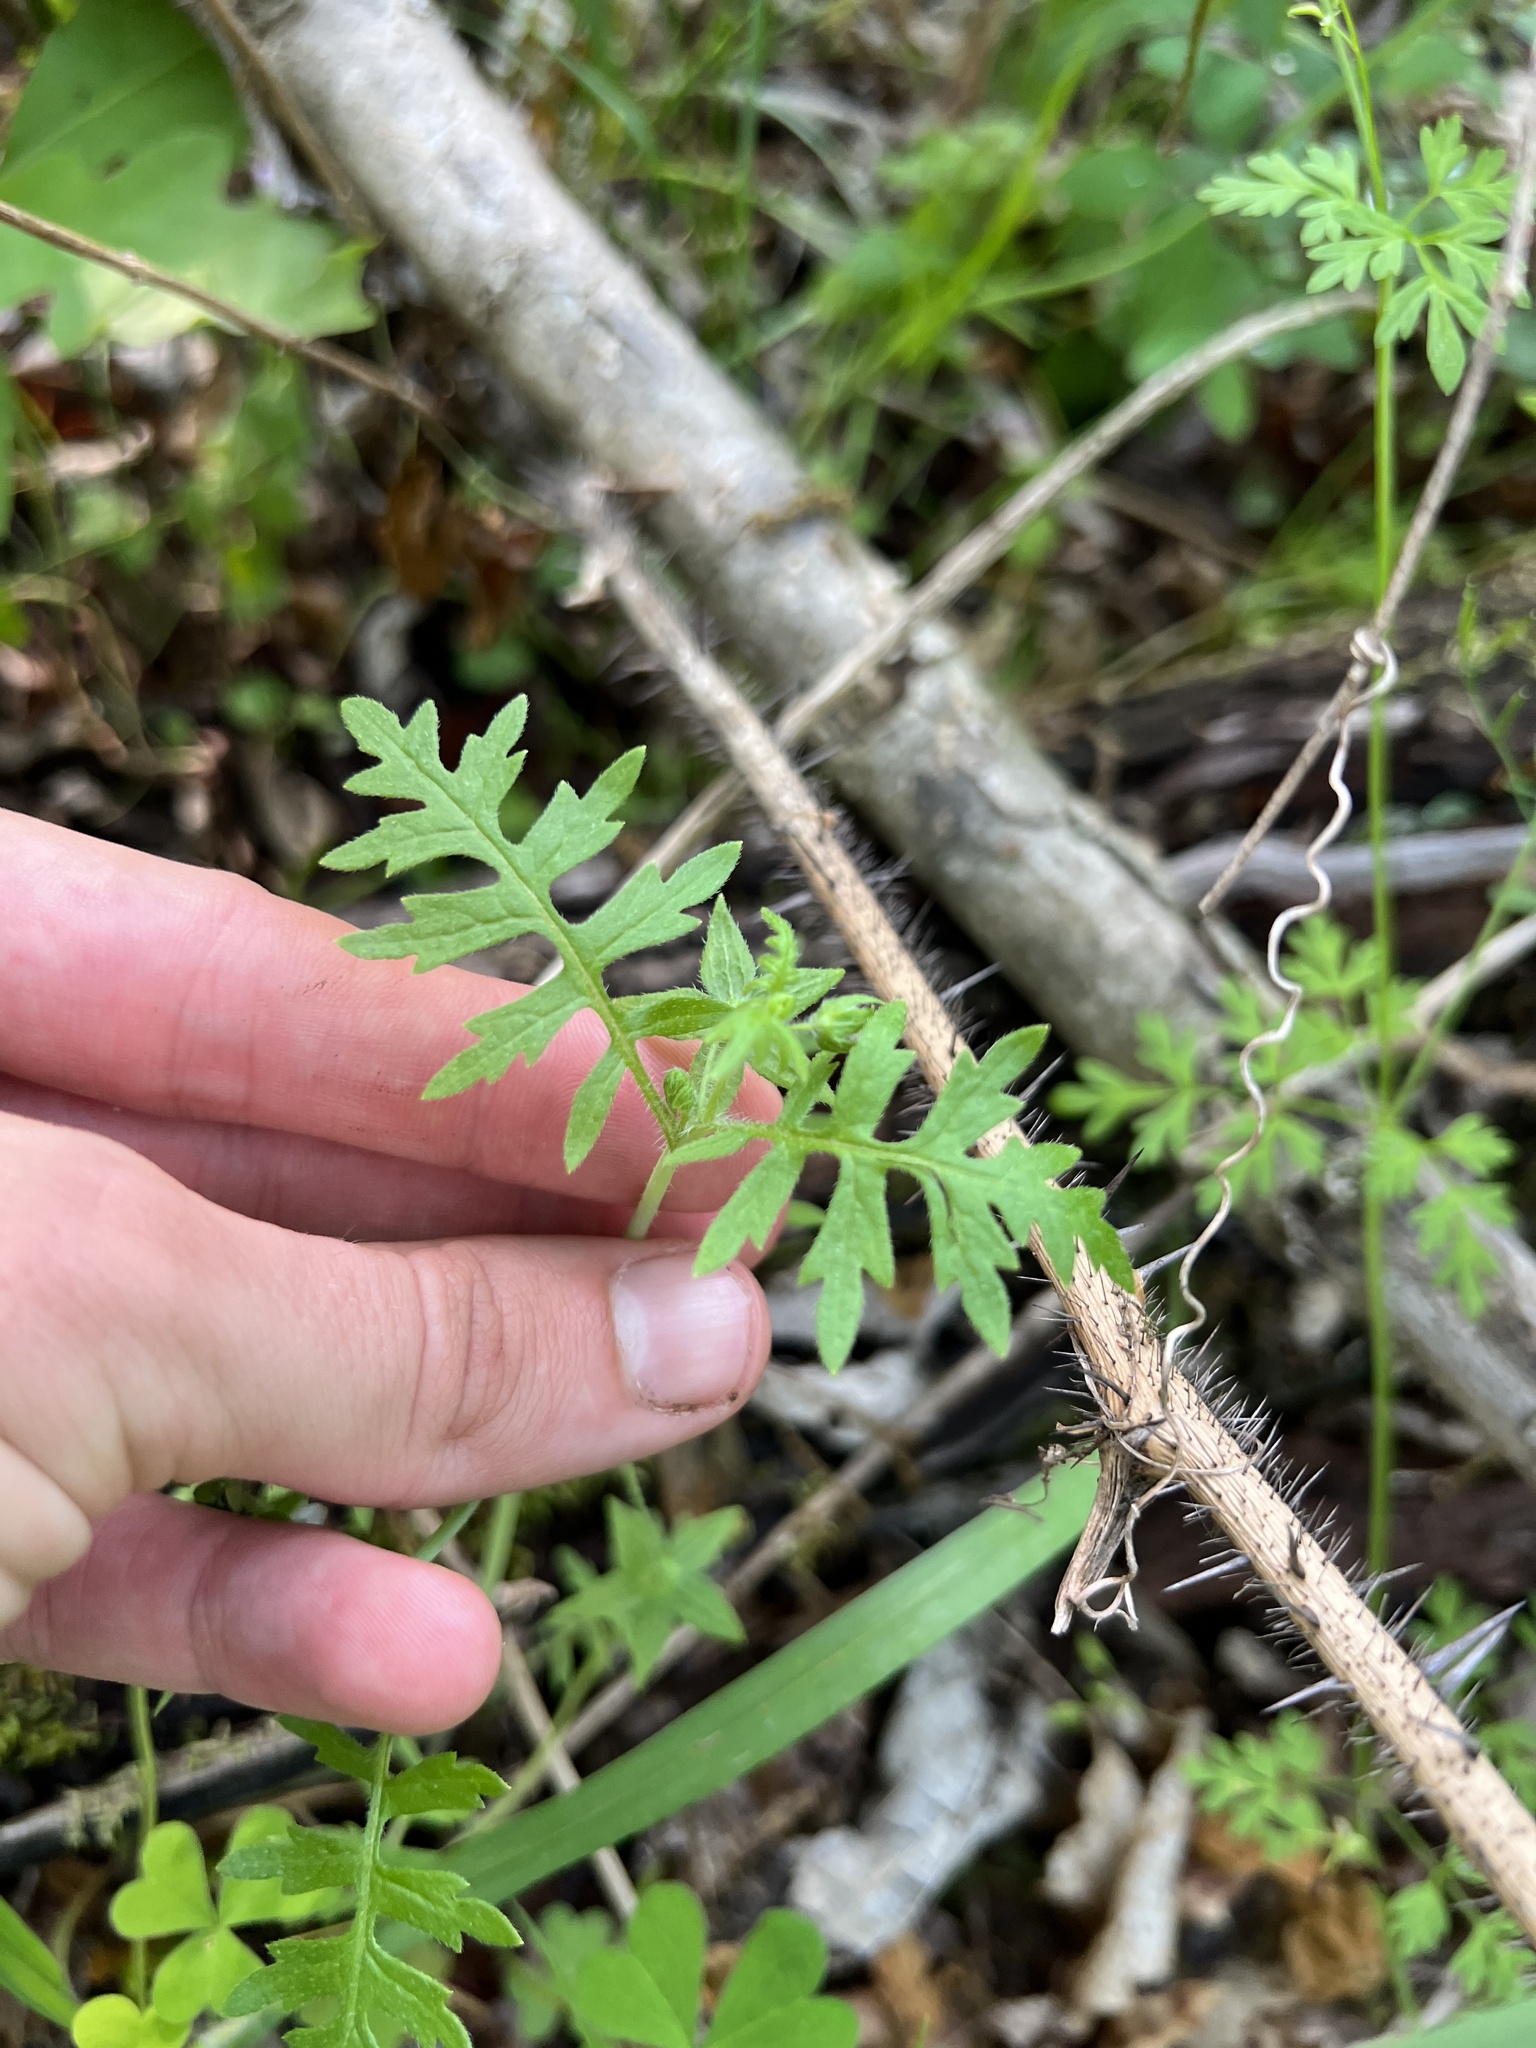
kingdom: Plantae
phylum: Tracheophyta
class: Magnoliopsida
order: Boraginales
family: Hydrophyllaceae
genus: Ellisia
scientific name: Ellisia nyctelea
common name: Aunt lucy
